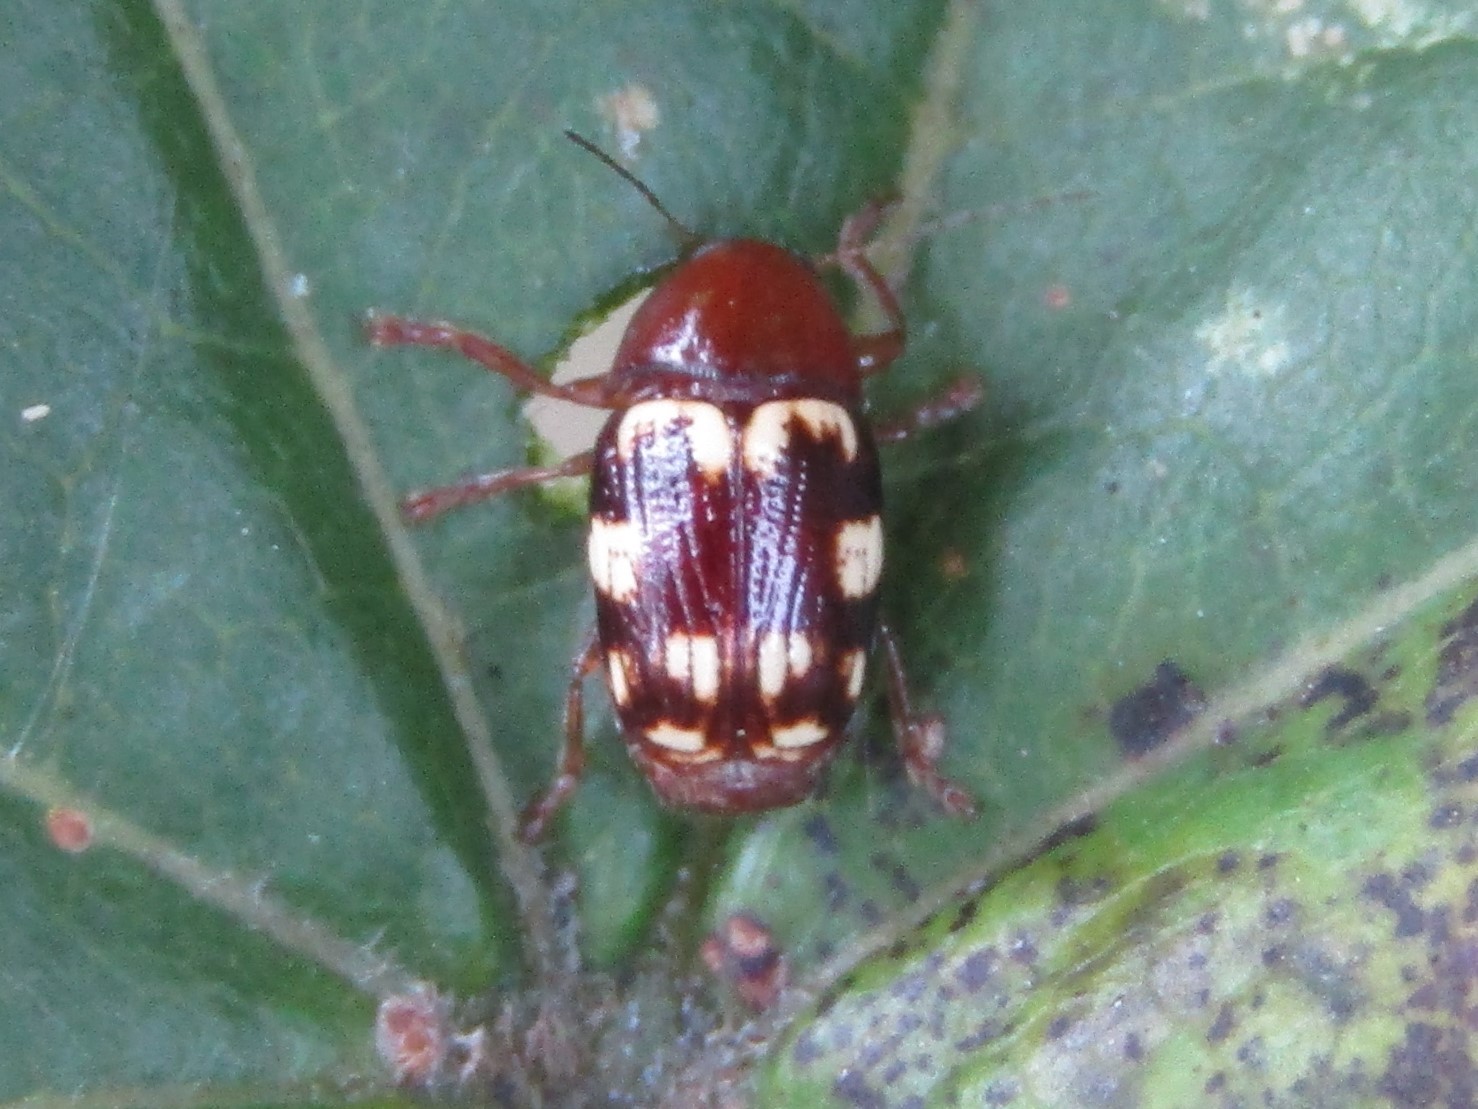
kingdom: Animalia
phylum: Arthropoda
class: Insecta
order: Coleoptera
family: Chrysomelidae
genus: Cryptocephalus
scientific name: Cryptocephalus badius
